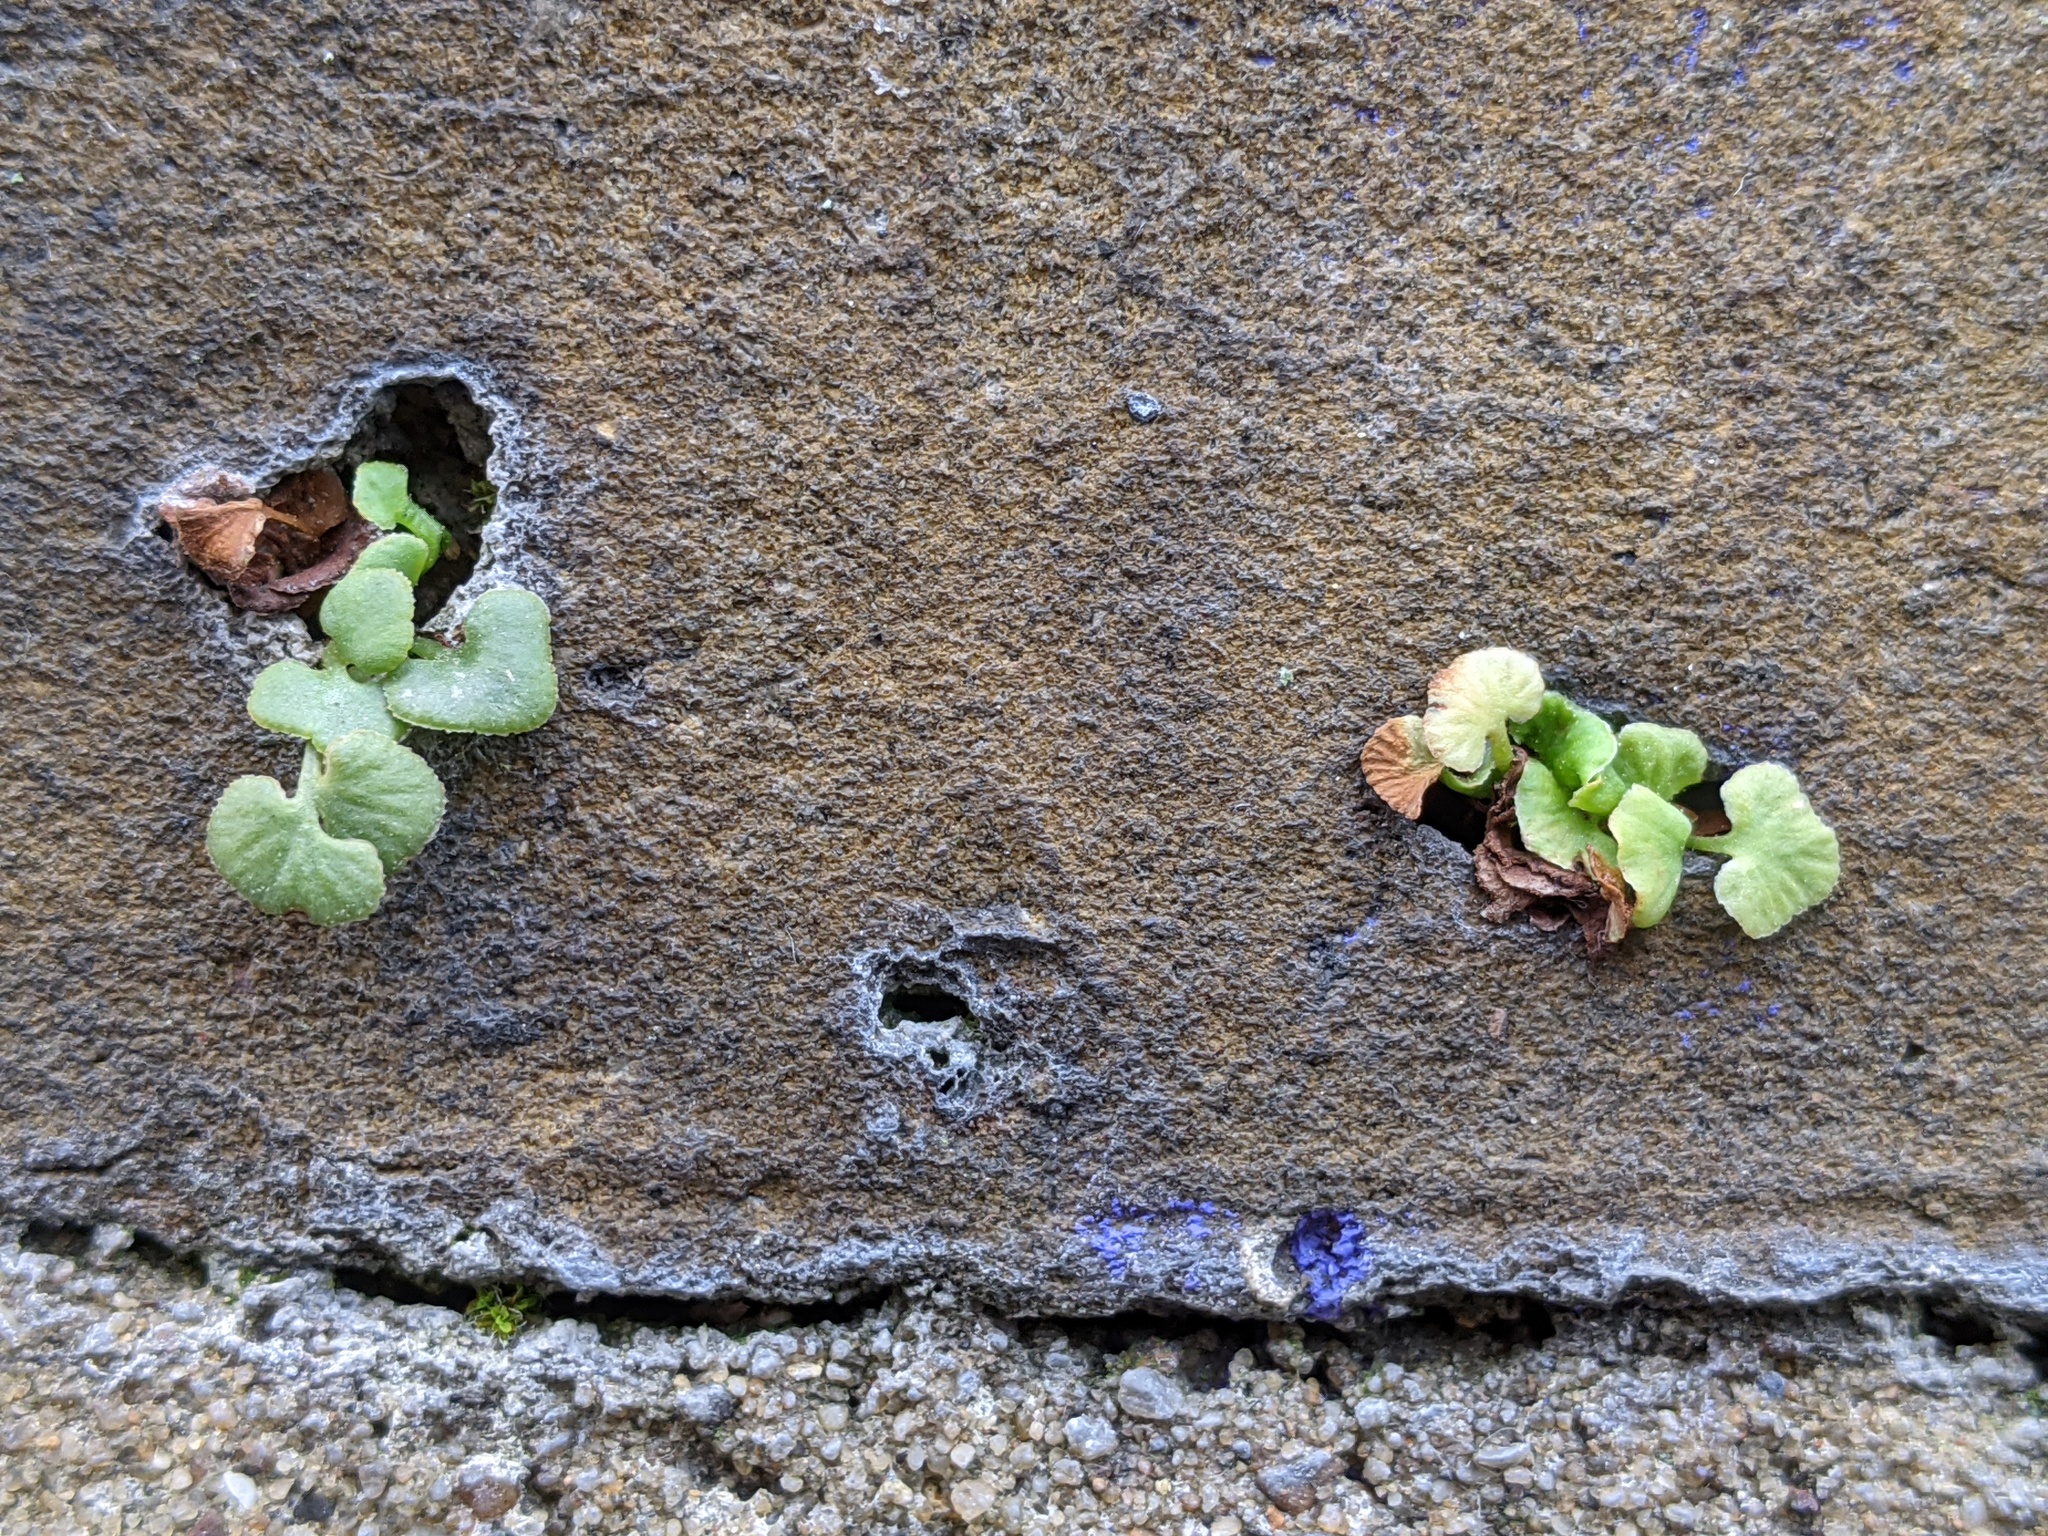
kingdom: Plantae
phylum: Tracheophyta
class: Polypodiopsida
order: Polypodiales
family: Aspleniaceae
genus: Asplenium
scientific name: Asplenium ruta-muraria
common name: Wall-rue
